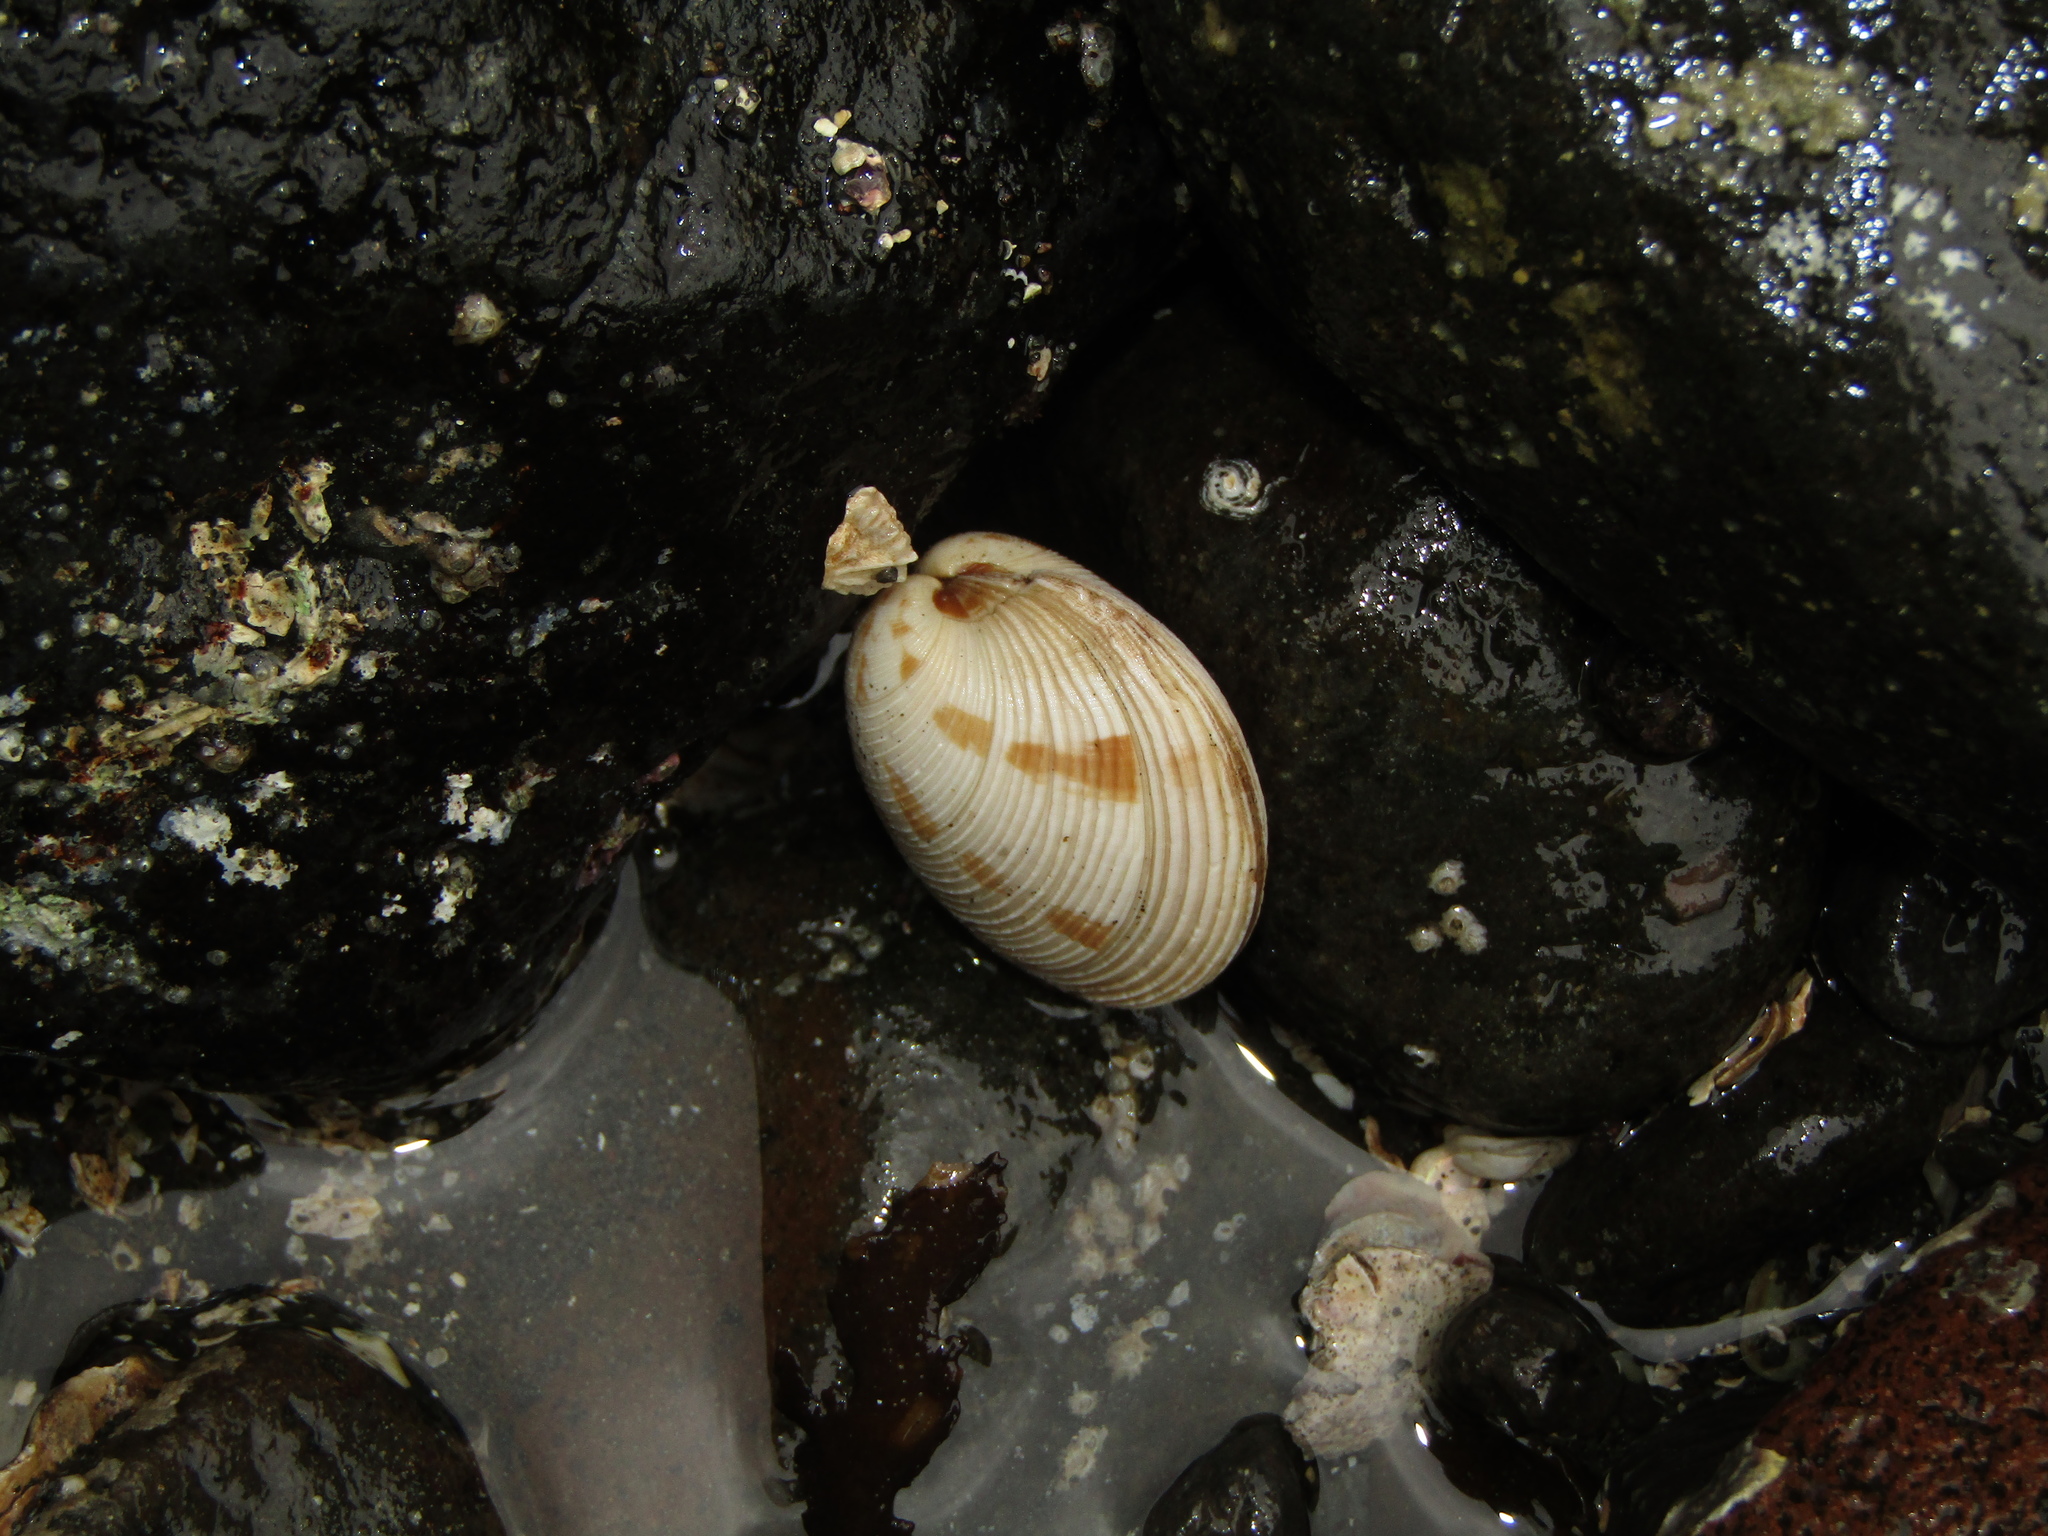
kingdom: Animalia
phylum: Mollusca
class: Bivalvia
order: Venerida
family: Veneridae
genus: Dosina
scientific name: Dosina mactracea
